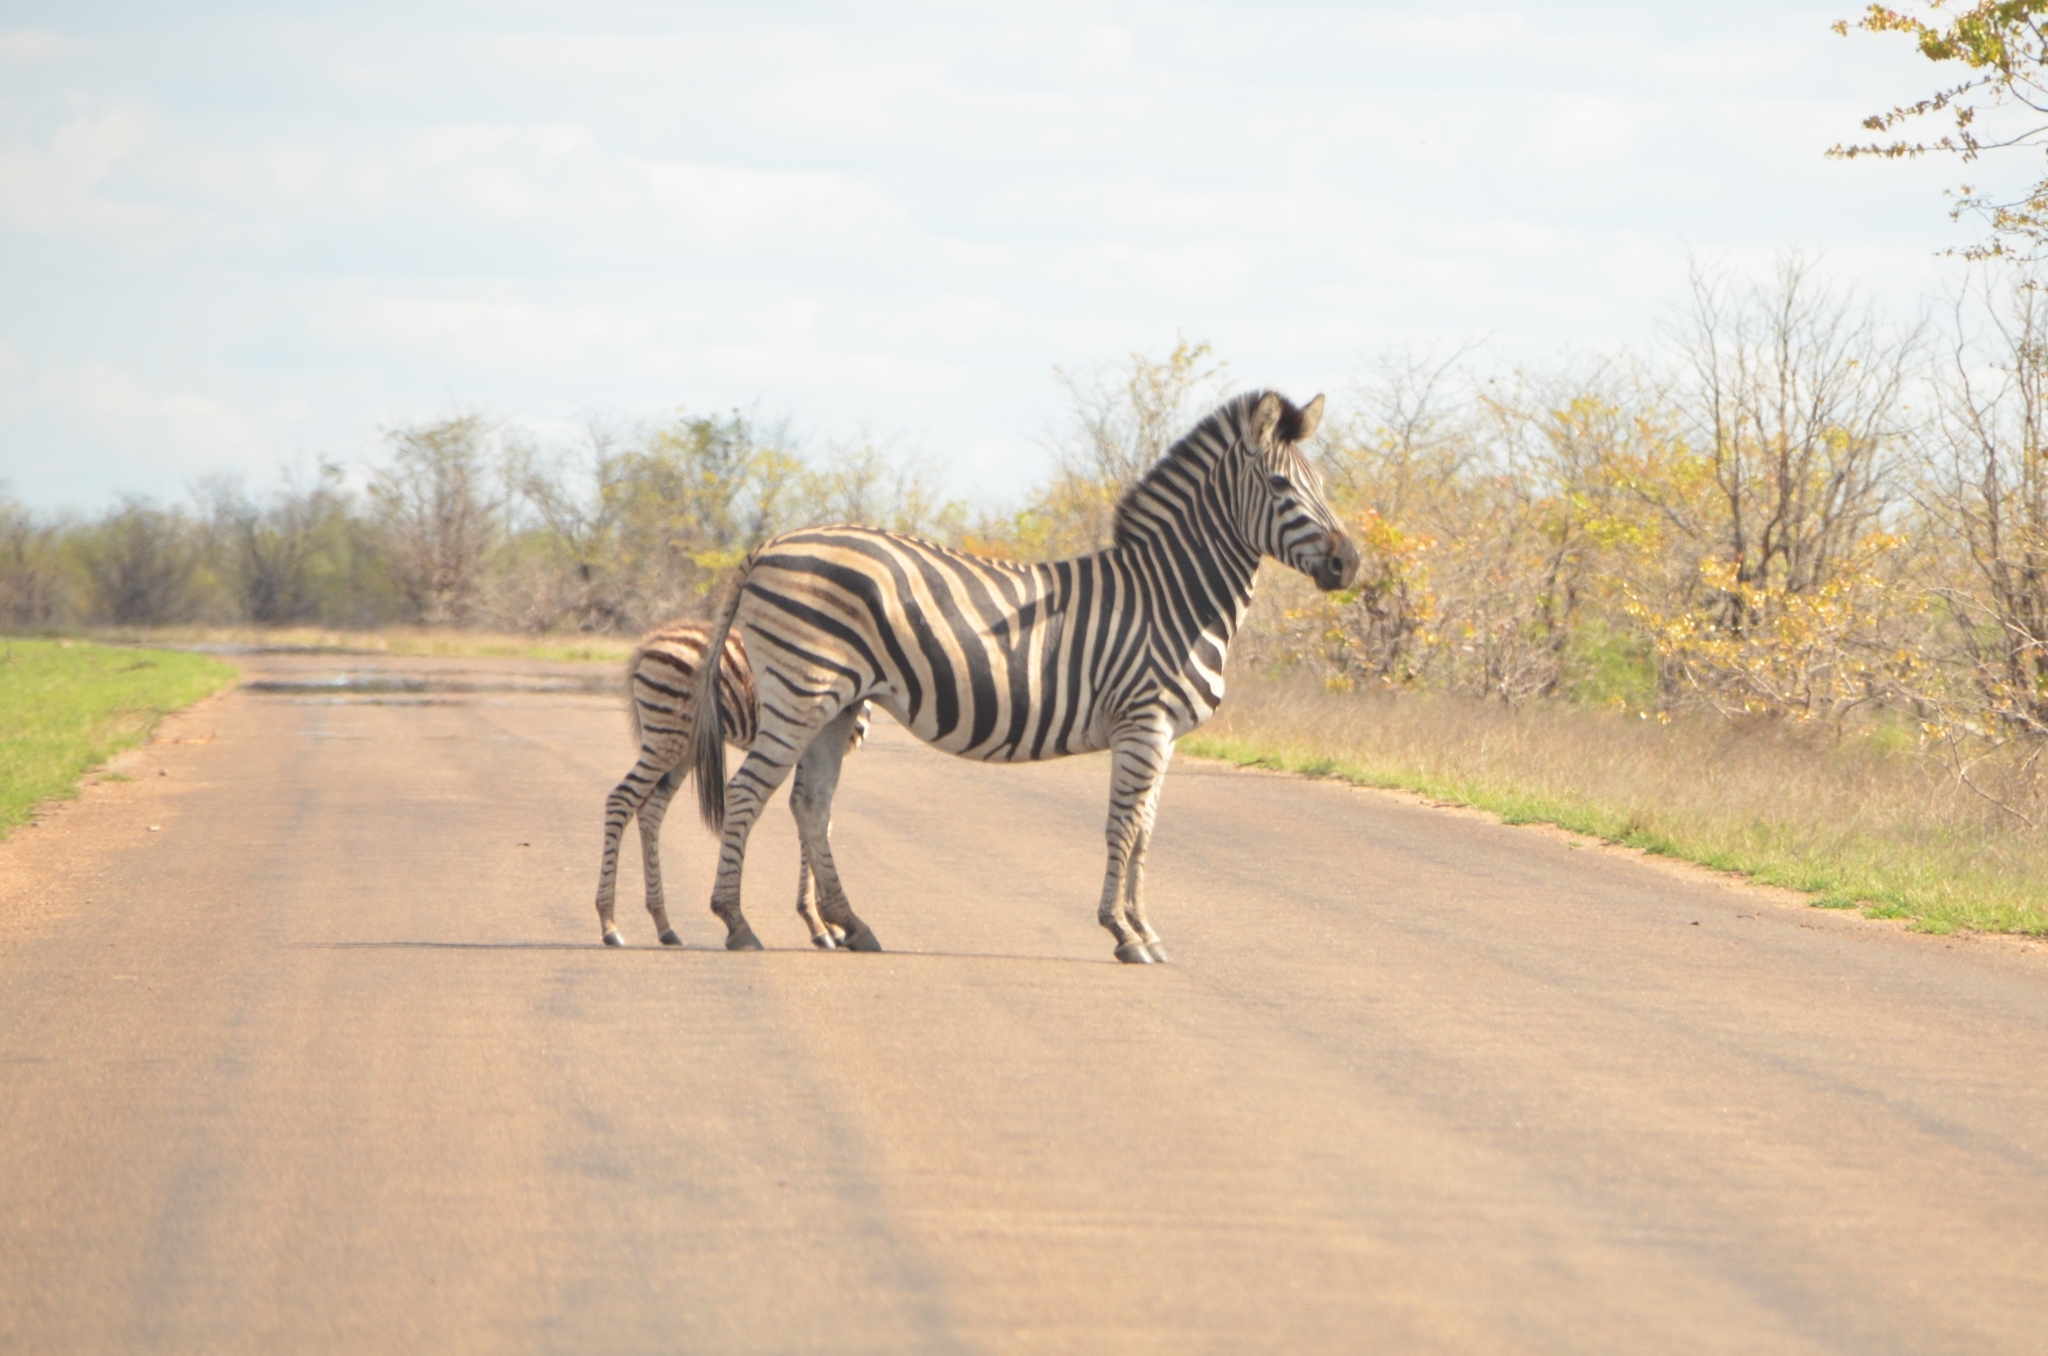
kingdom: Animalia
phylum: Chordata
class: Mammalia
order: Perissodactyla
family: Equidae
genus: Equus
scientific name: Equus quagga
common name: Plains zebra
